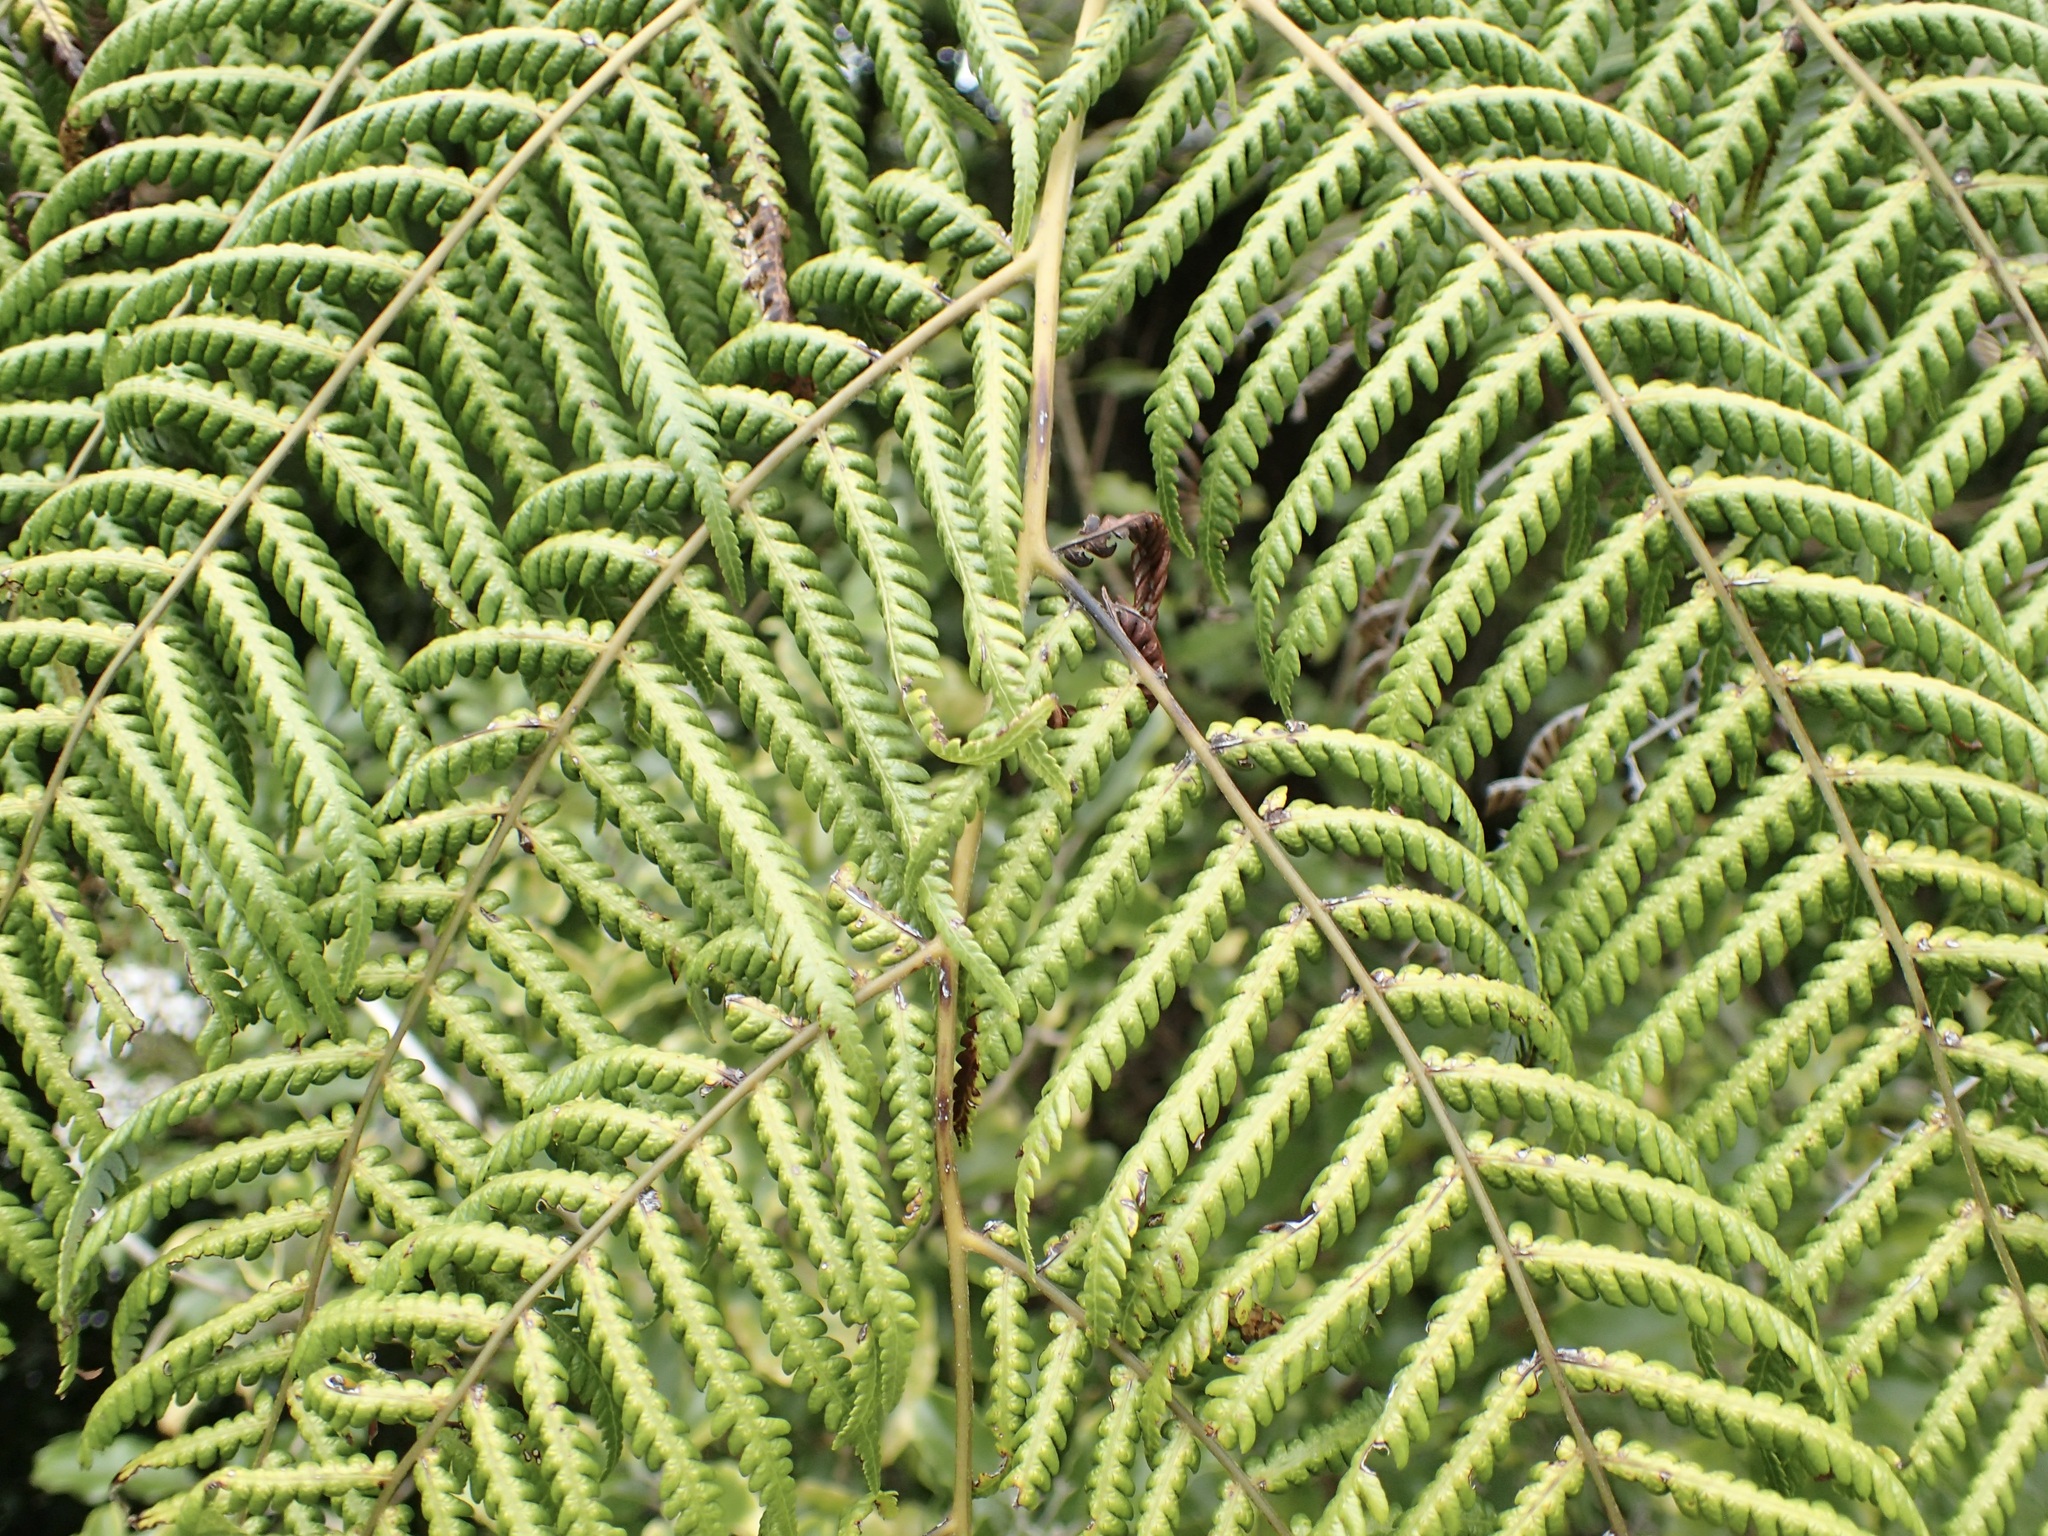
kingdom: Plantae
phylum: Tracheophyta
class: Polypodiopsida
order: Cyatheales
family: Cyatheaceae
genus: Alsophila
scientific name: Alsophila dealbata
